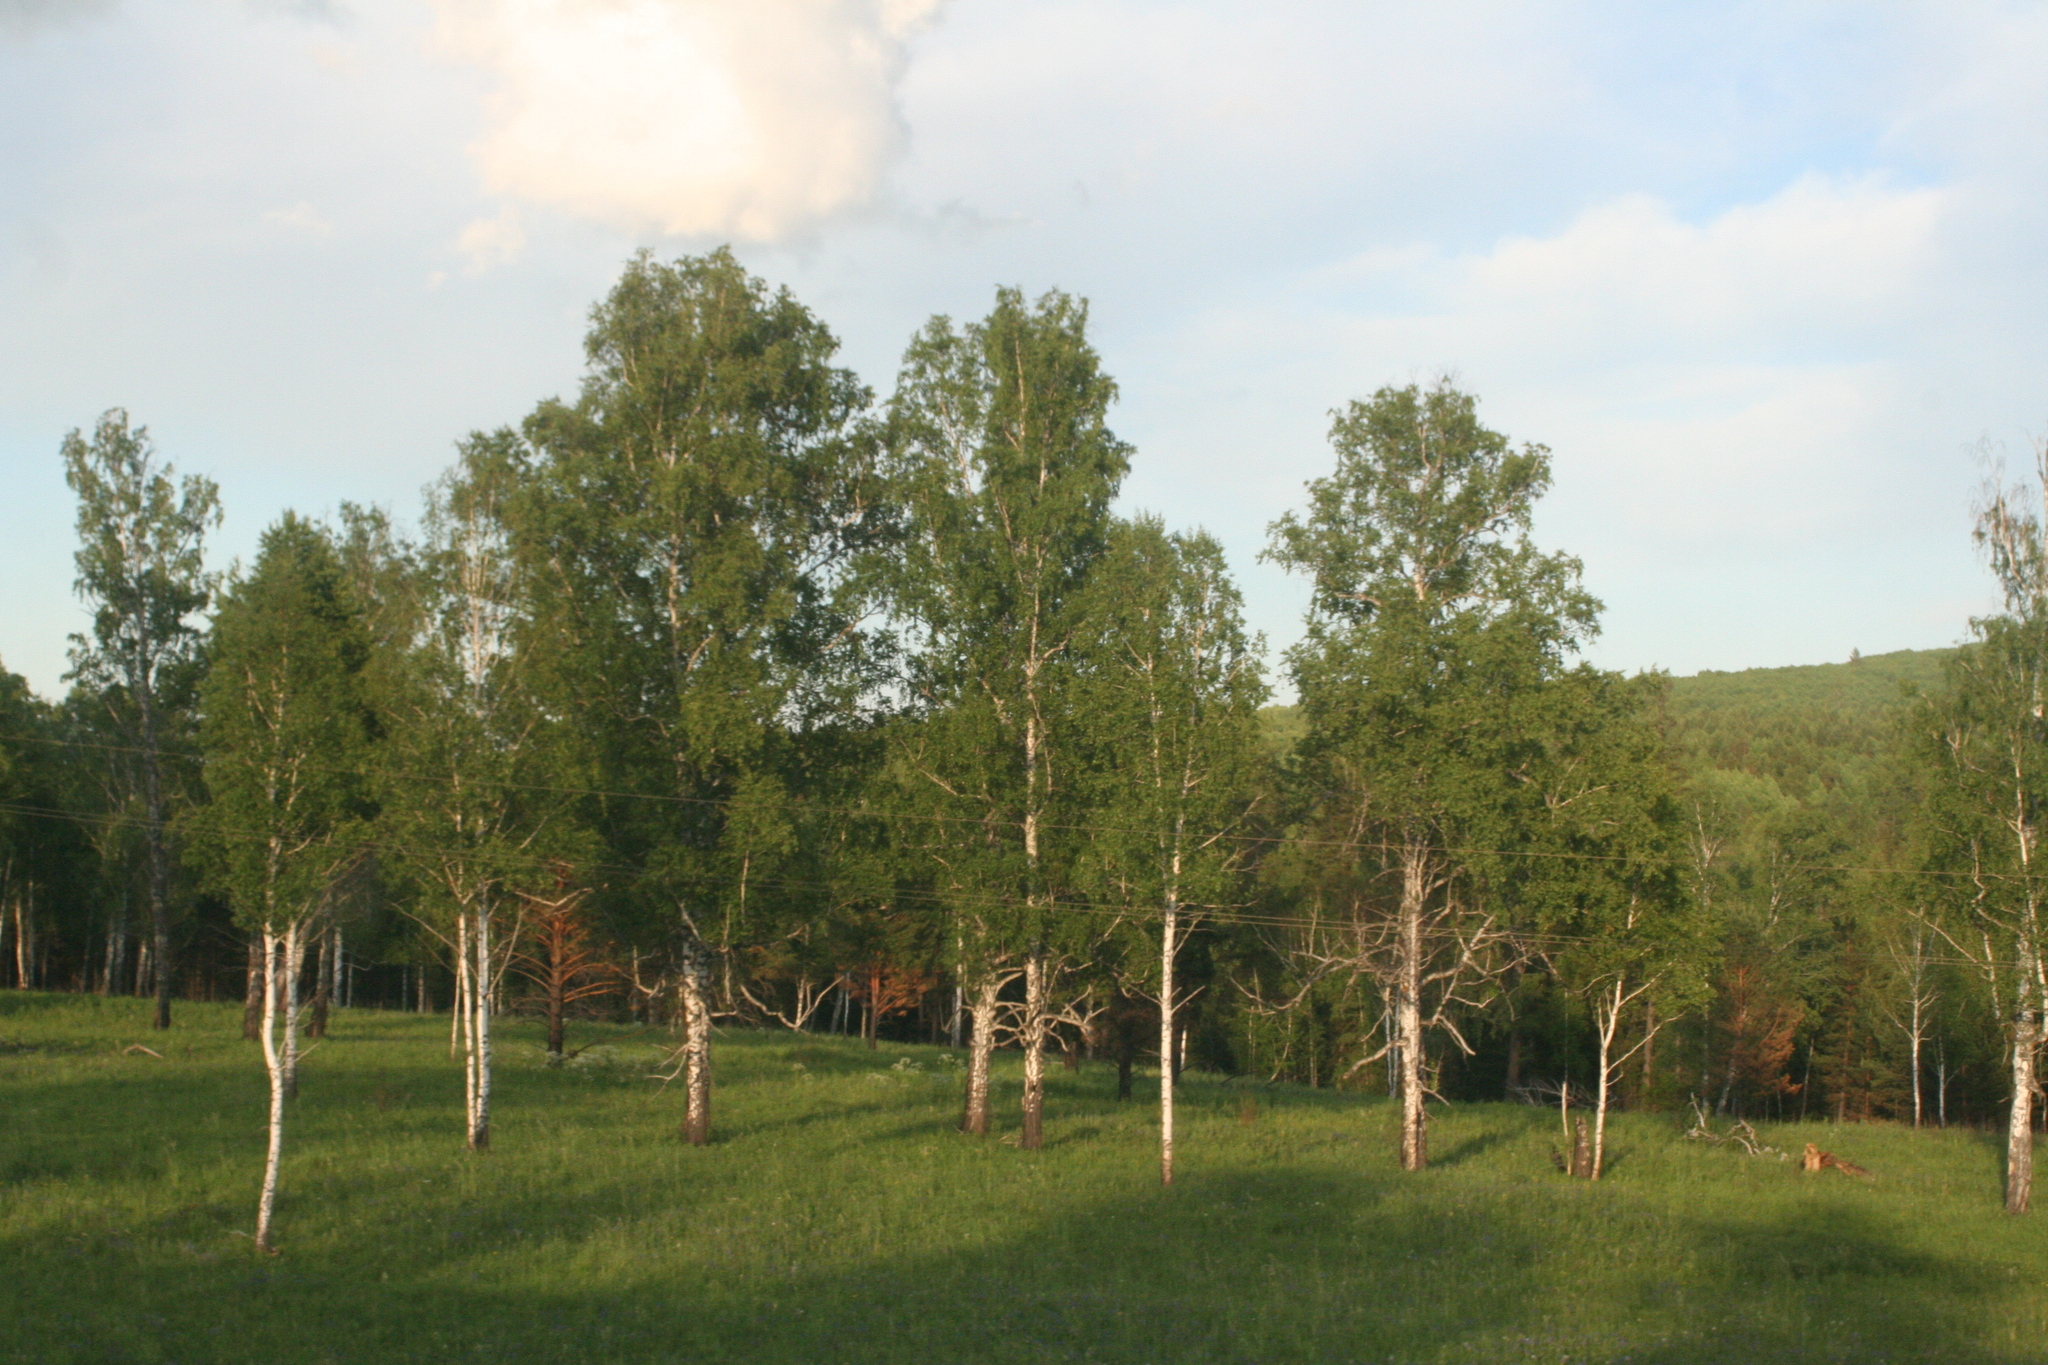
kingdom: Plantae
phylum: Tracheophyta
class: Magnoliopsida
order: Fagales
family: Betulaceae
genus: Betula
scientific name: Betula pendula
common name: Silver birch
